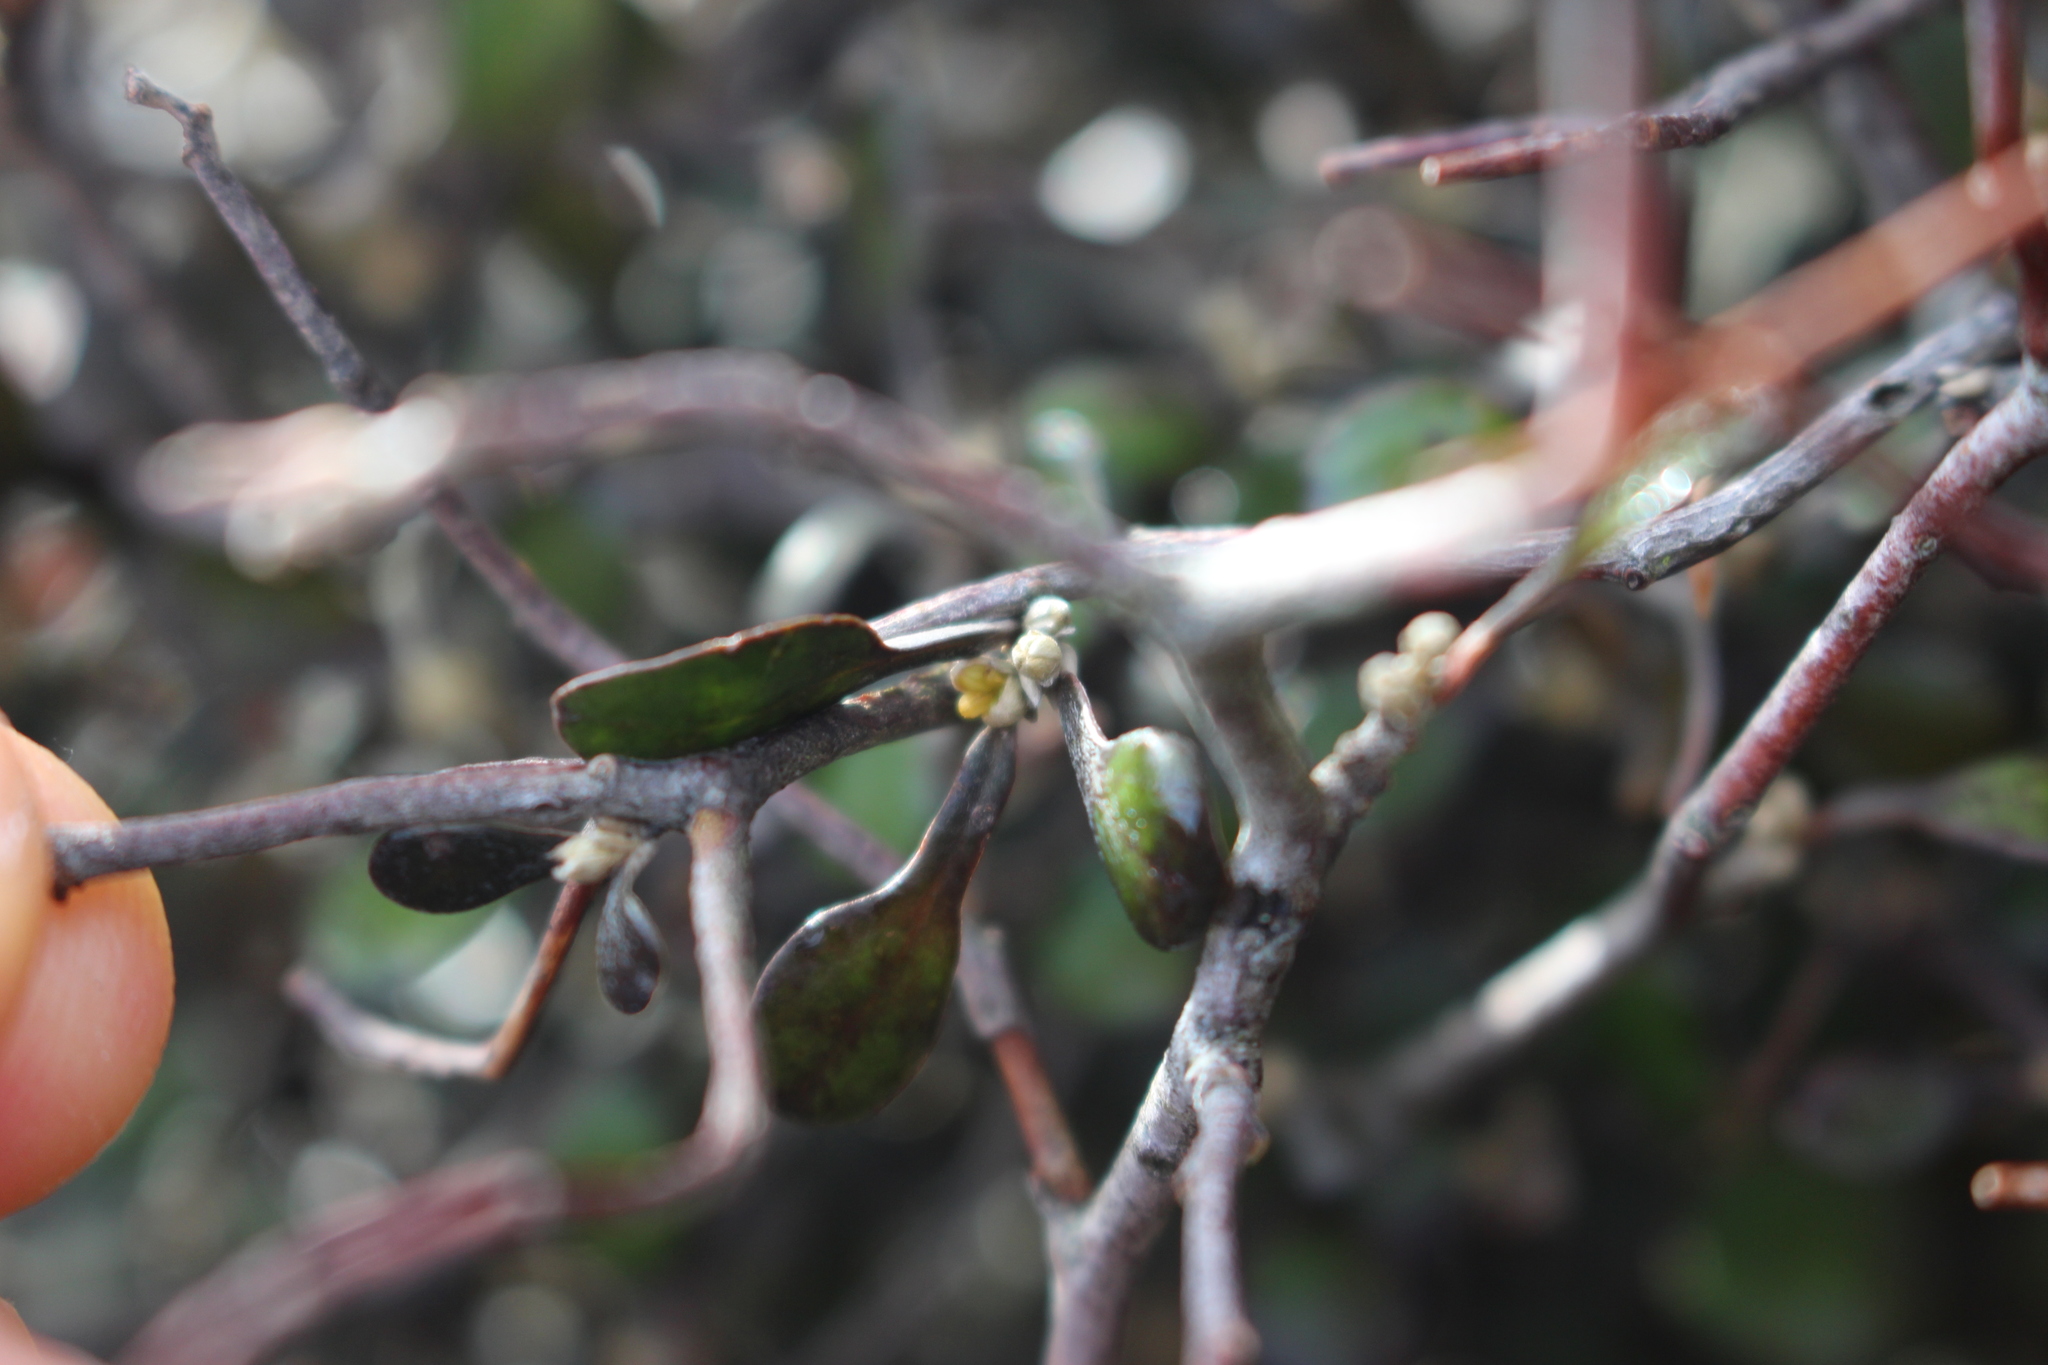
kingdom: Plantae
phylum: Tracheophyta
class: Magnoliopsida
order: Asterales
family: Argophyllaceae
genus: Corokia
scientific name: Corokia cotoneaster
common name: Wire nettingbush
